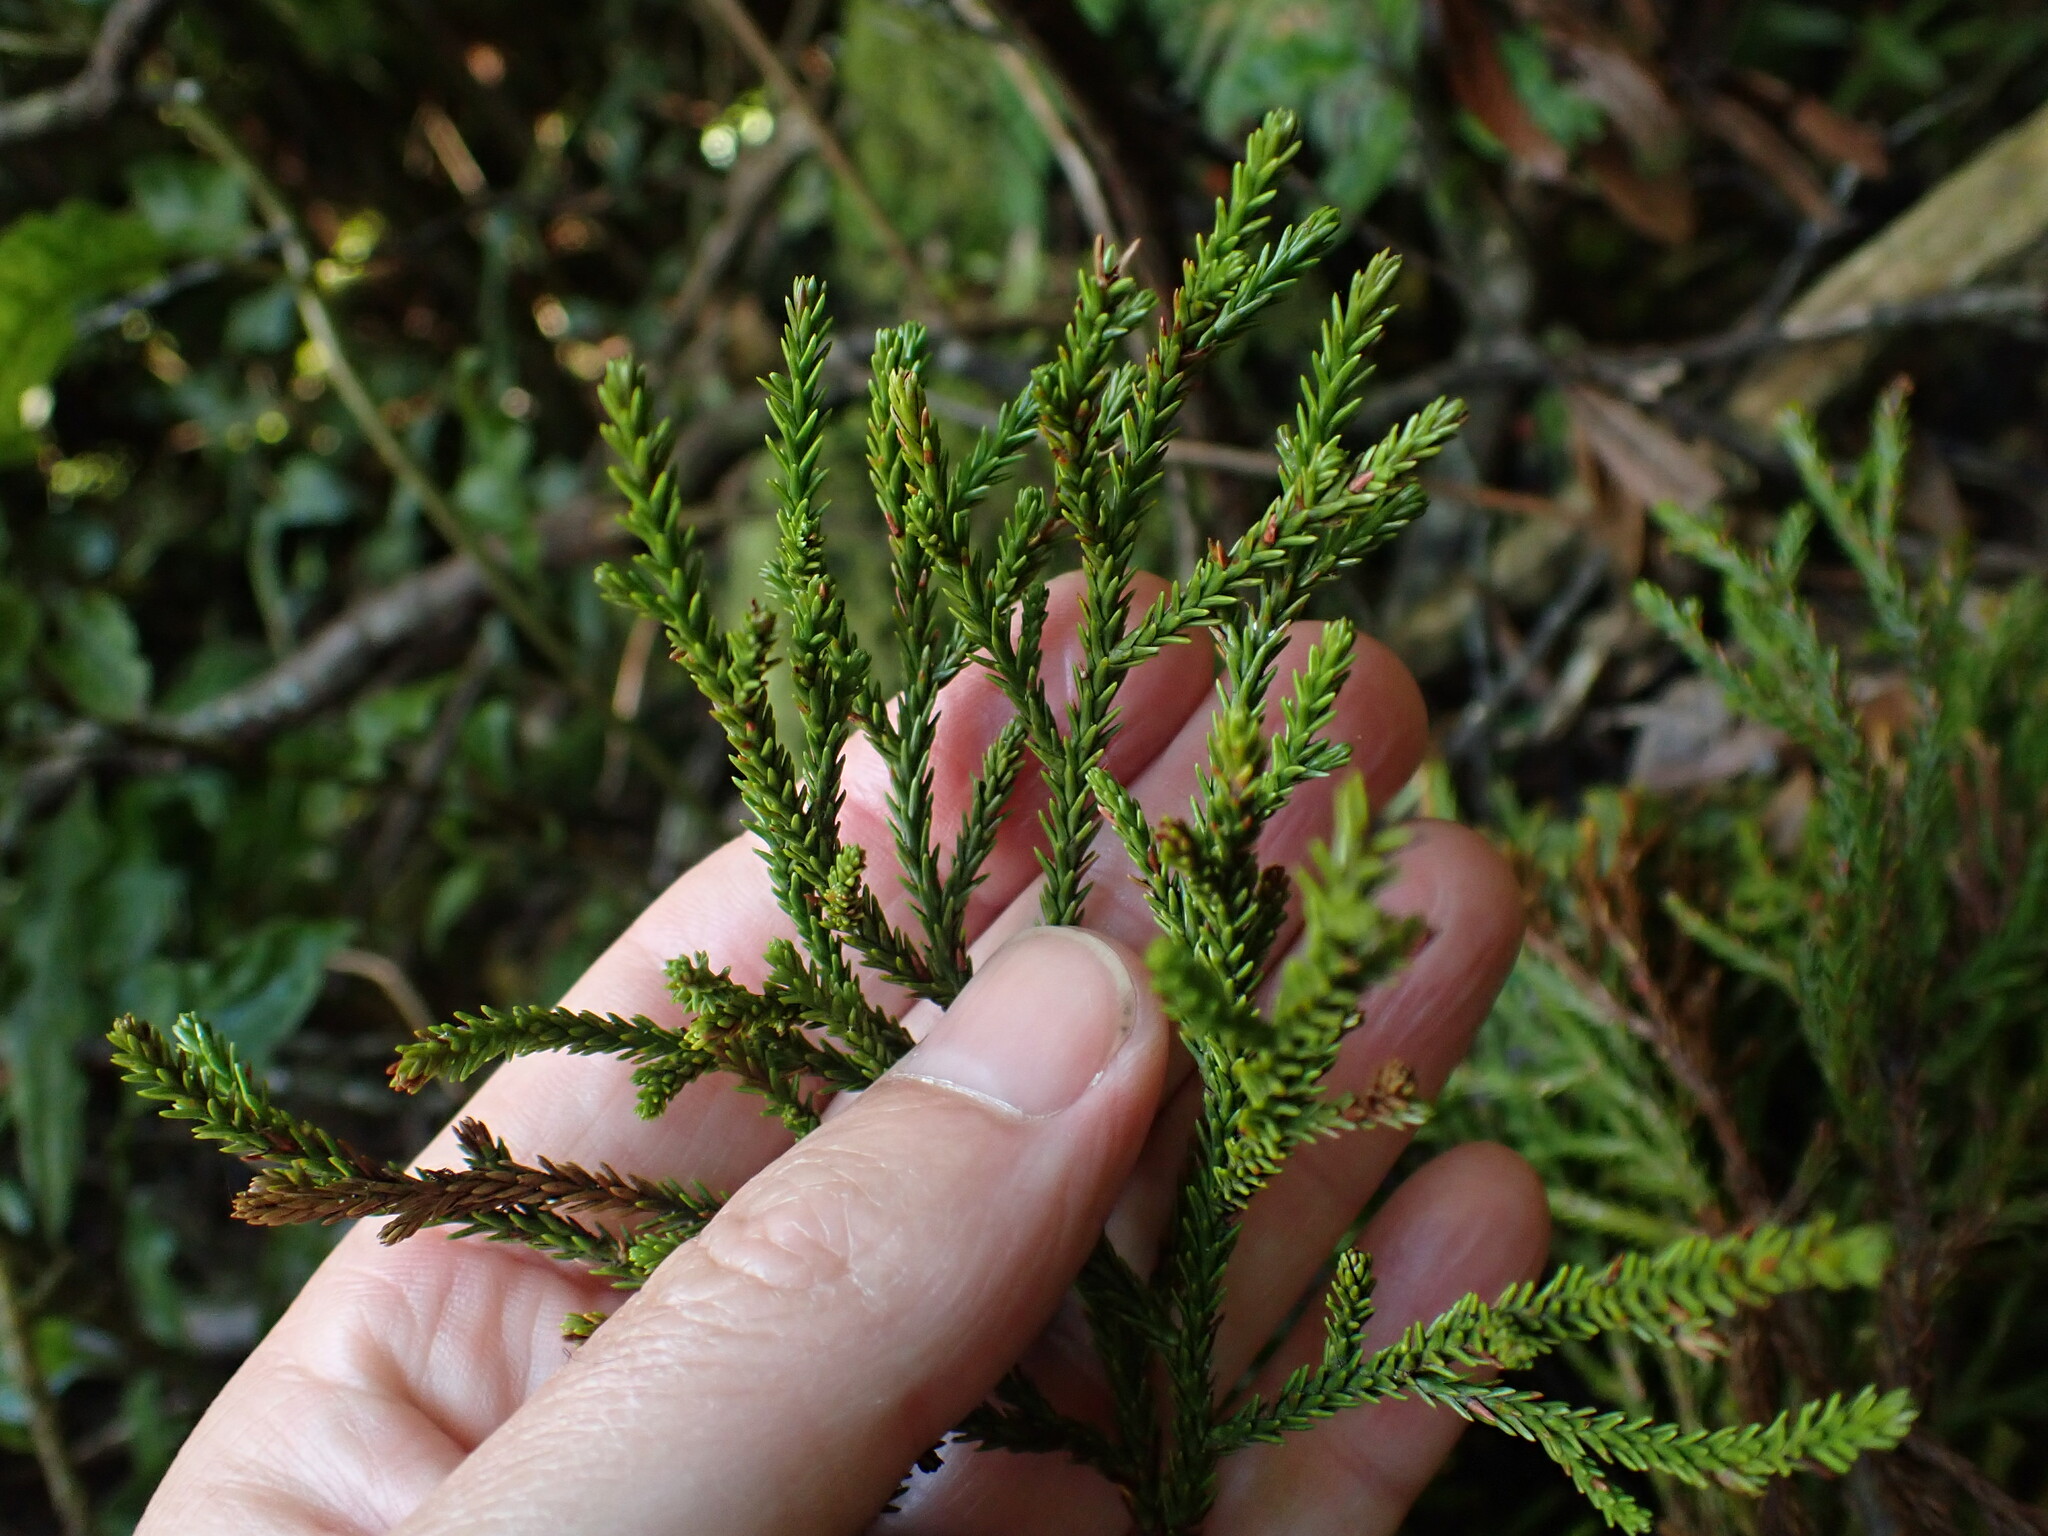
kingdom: Plantae
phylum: Tracheophyta
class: Pinopsida
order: Pinales
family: Podocarpaceae
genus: Dacrycarpus
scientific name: Dacrycarpus dacrydioides
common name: White pine
